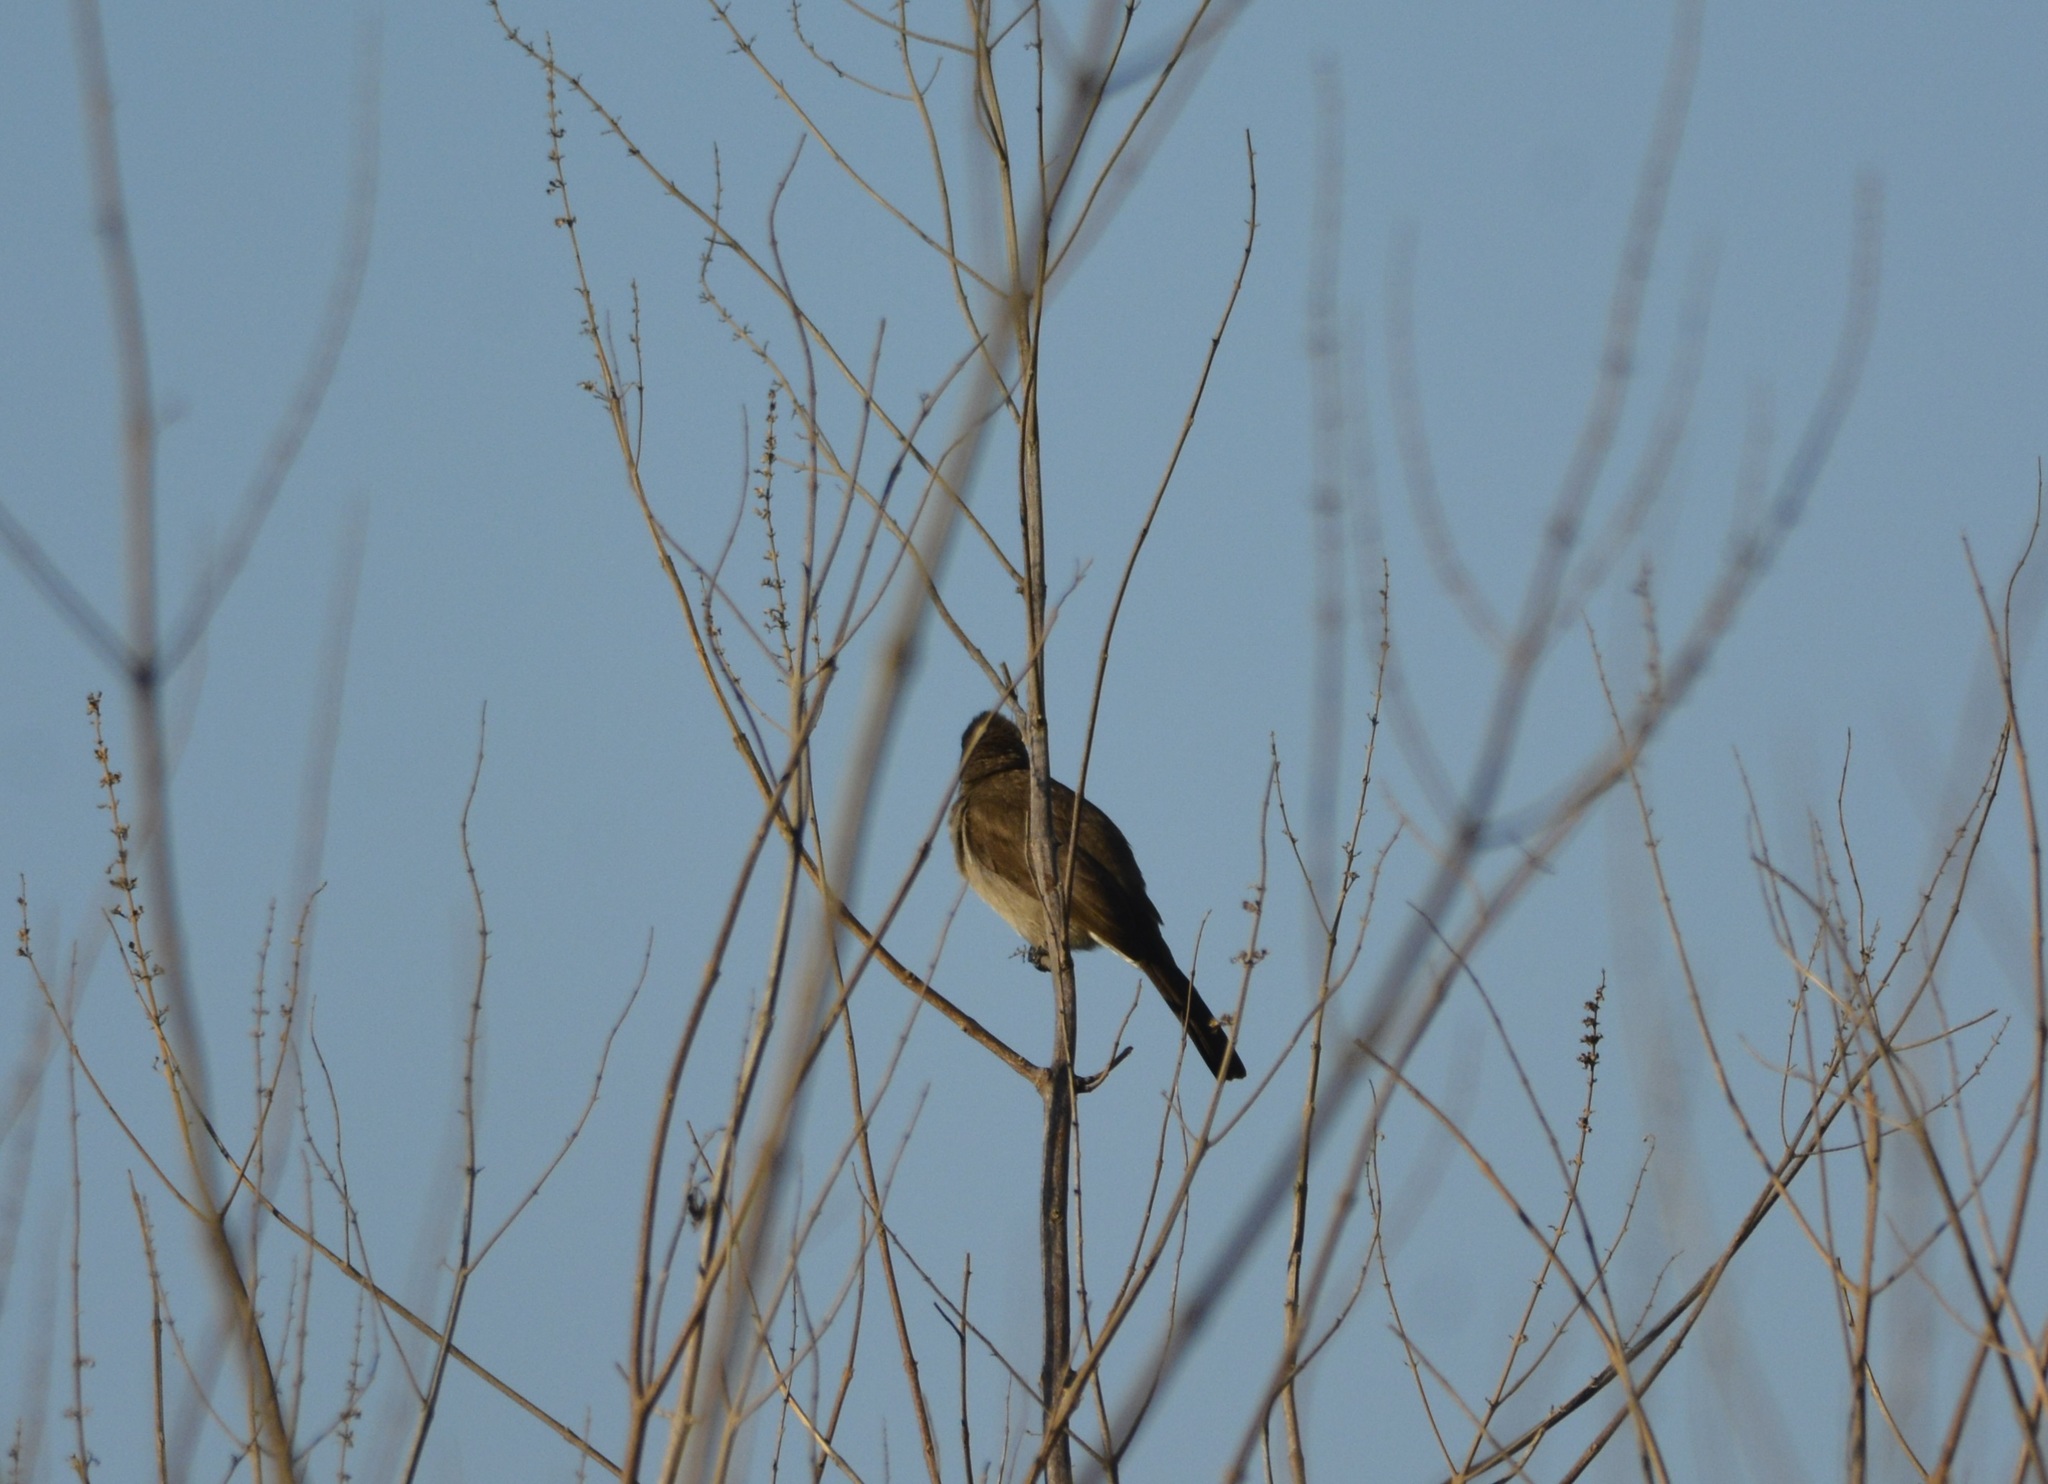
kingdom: Animalia
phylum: Chordata
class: Aves
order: Passeriformes
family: Pycnonotidae
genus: Pycnonotus
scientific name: Pycnonotus barbatus
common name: Common bulbul
